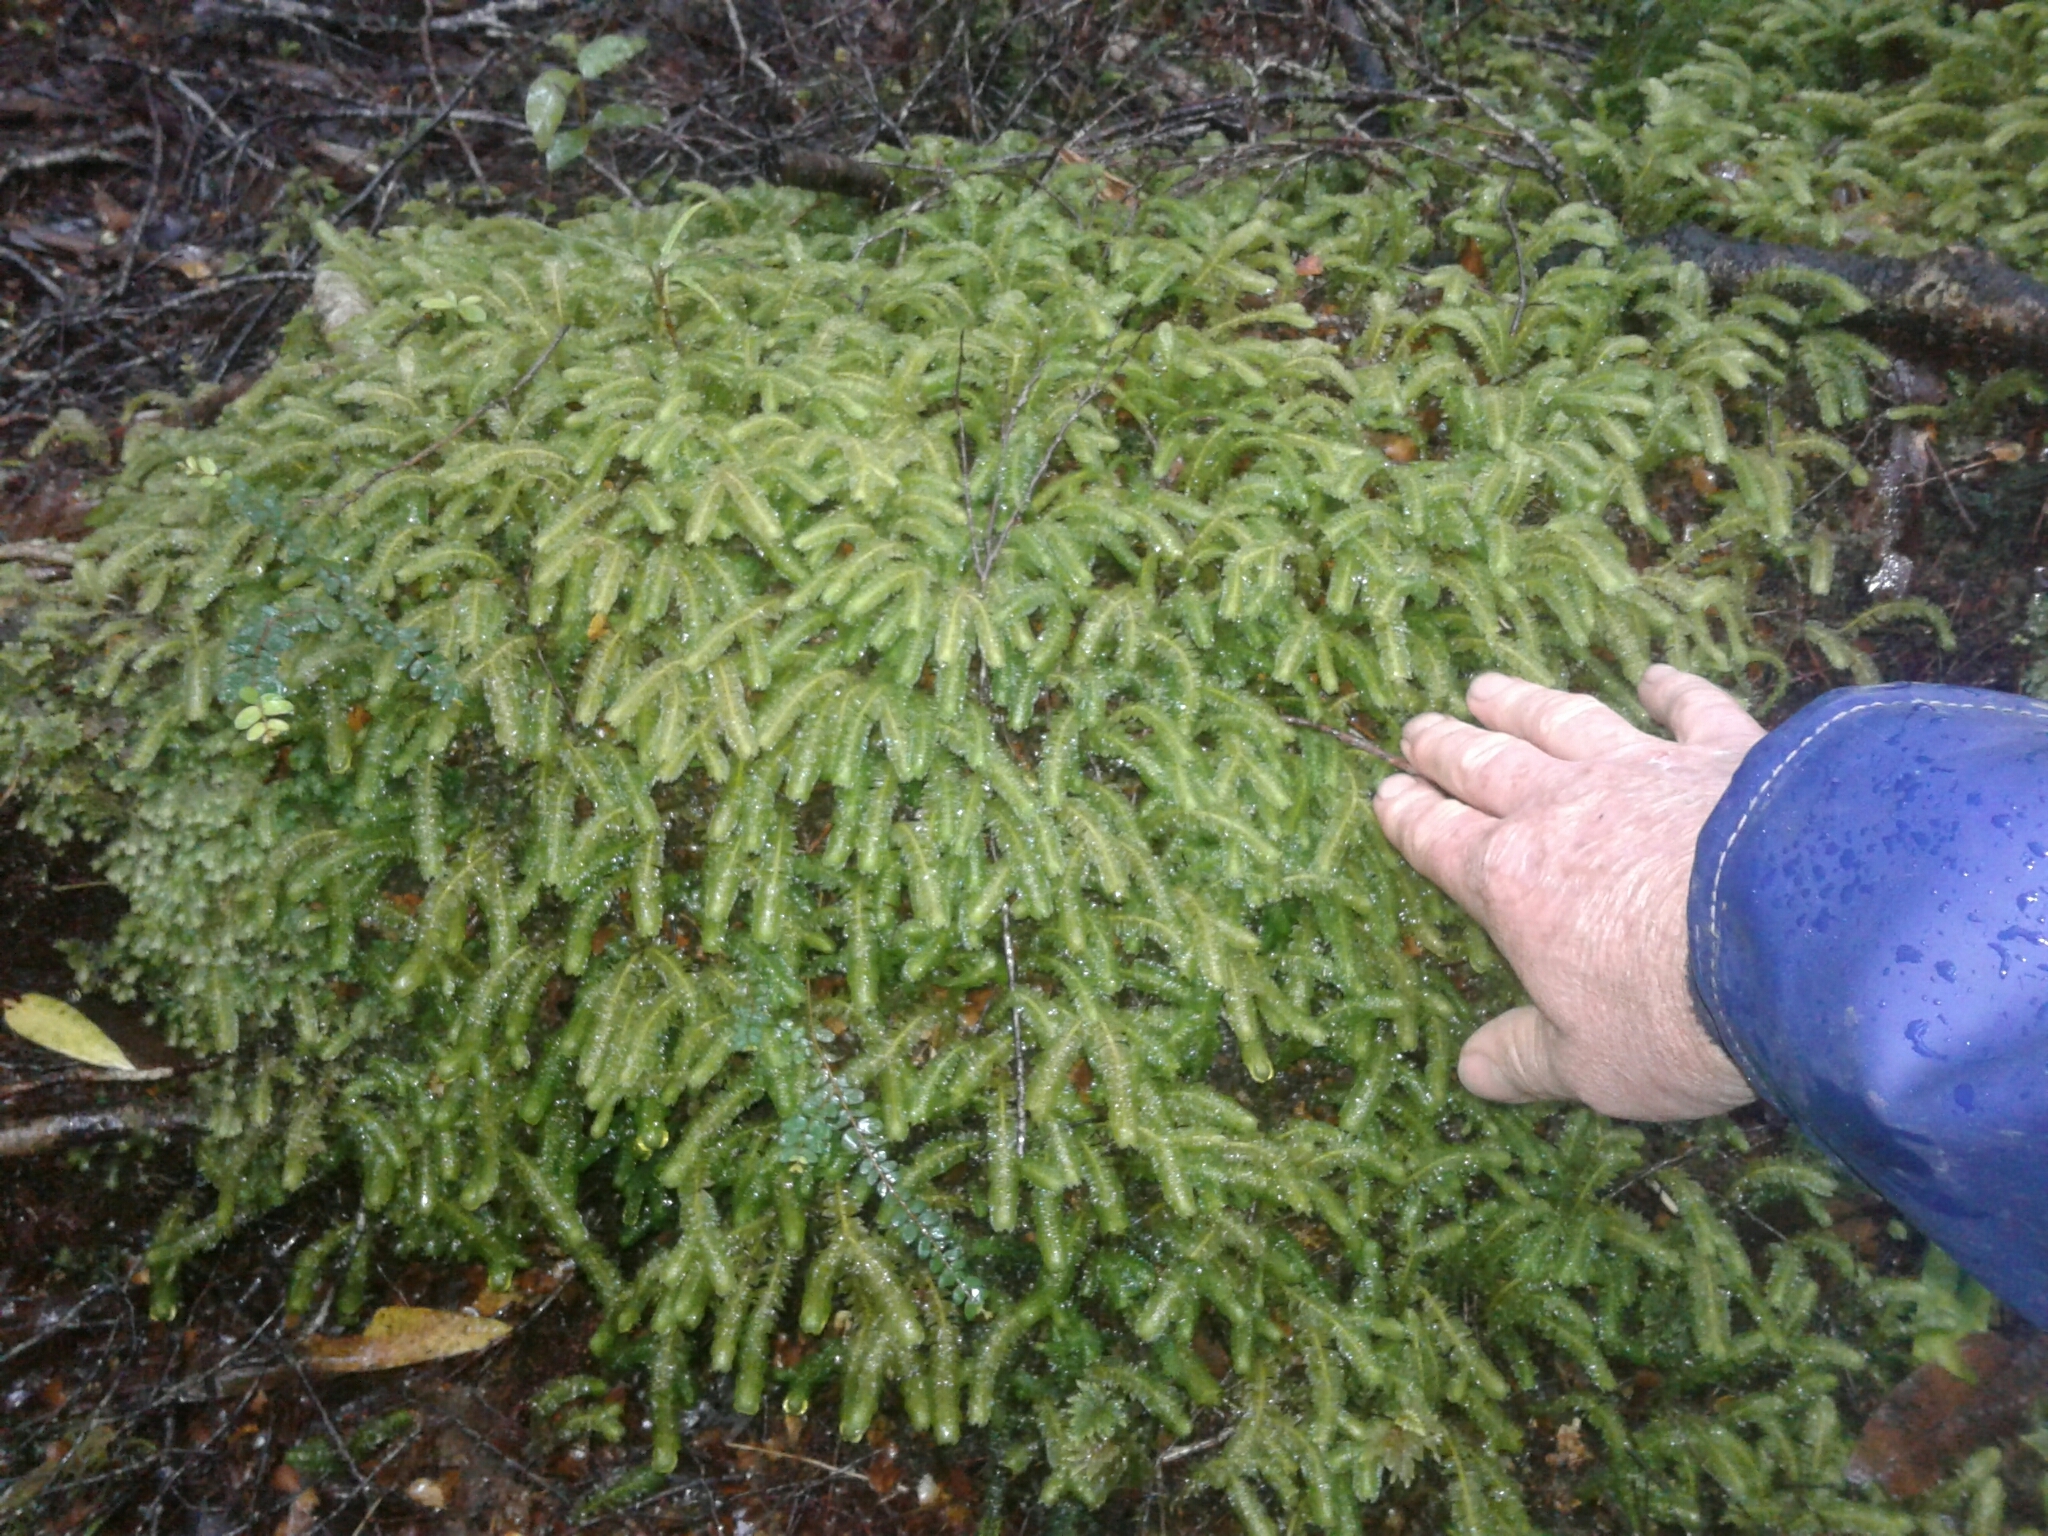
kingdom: Plantae
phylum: Marchantiophyta
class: Jungermanniopsida
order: Jungermanniales
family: Schistochilaceae
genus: Schistochila
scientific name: Schistochila appendiculata
